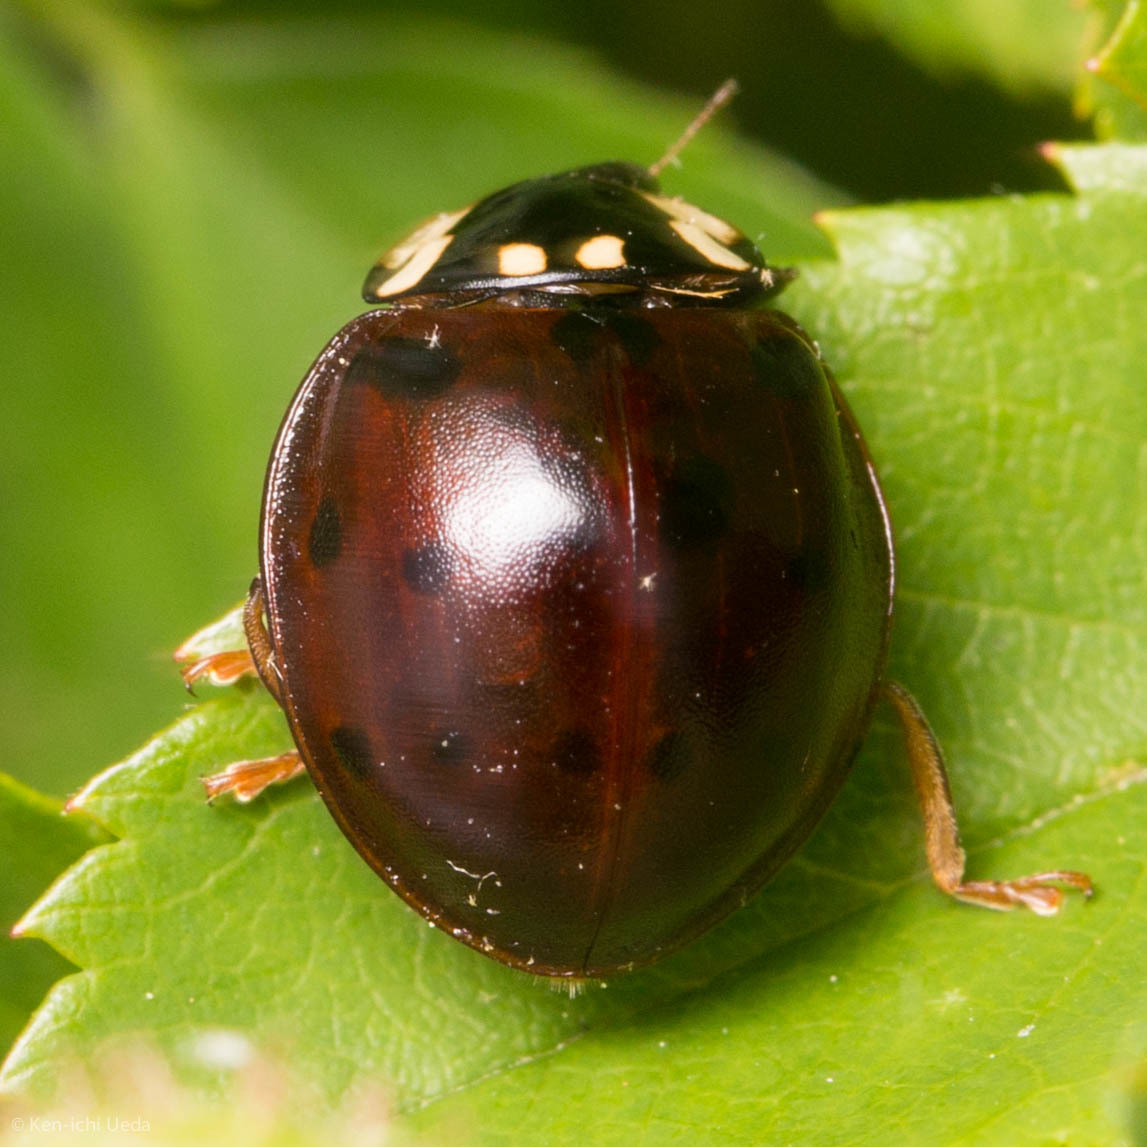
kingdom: Animalia
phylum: Arthropoda
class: Insecta
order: Coleoptera
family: Coccinellidae
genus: Anatis
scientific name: Anatis labiculata
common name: Fifteen-spotted lady beetle
